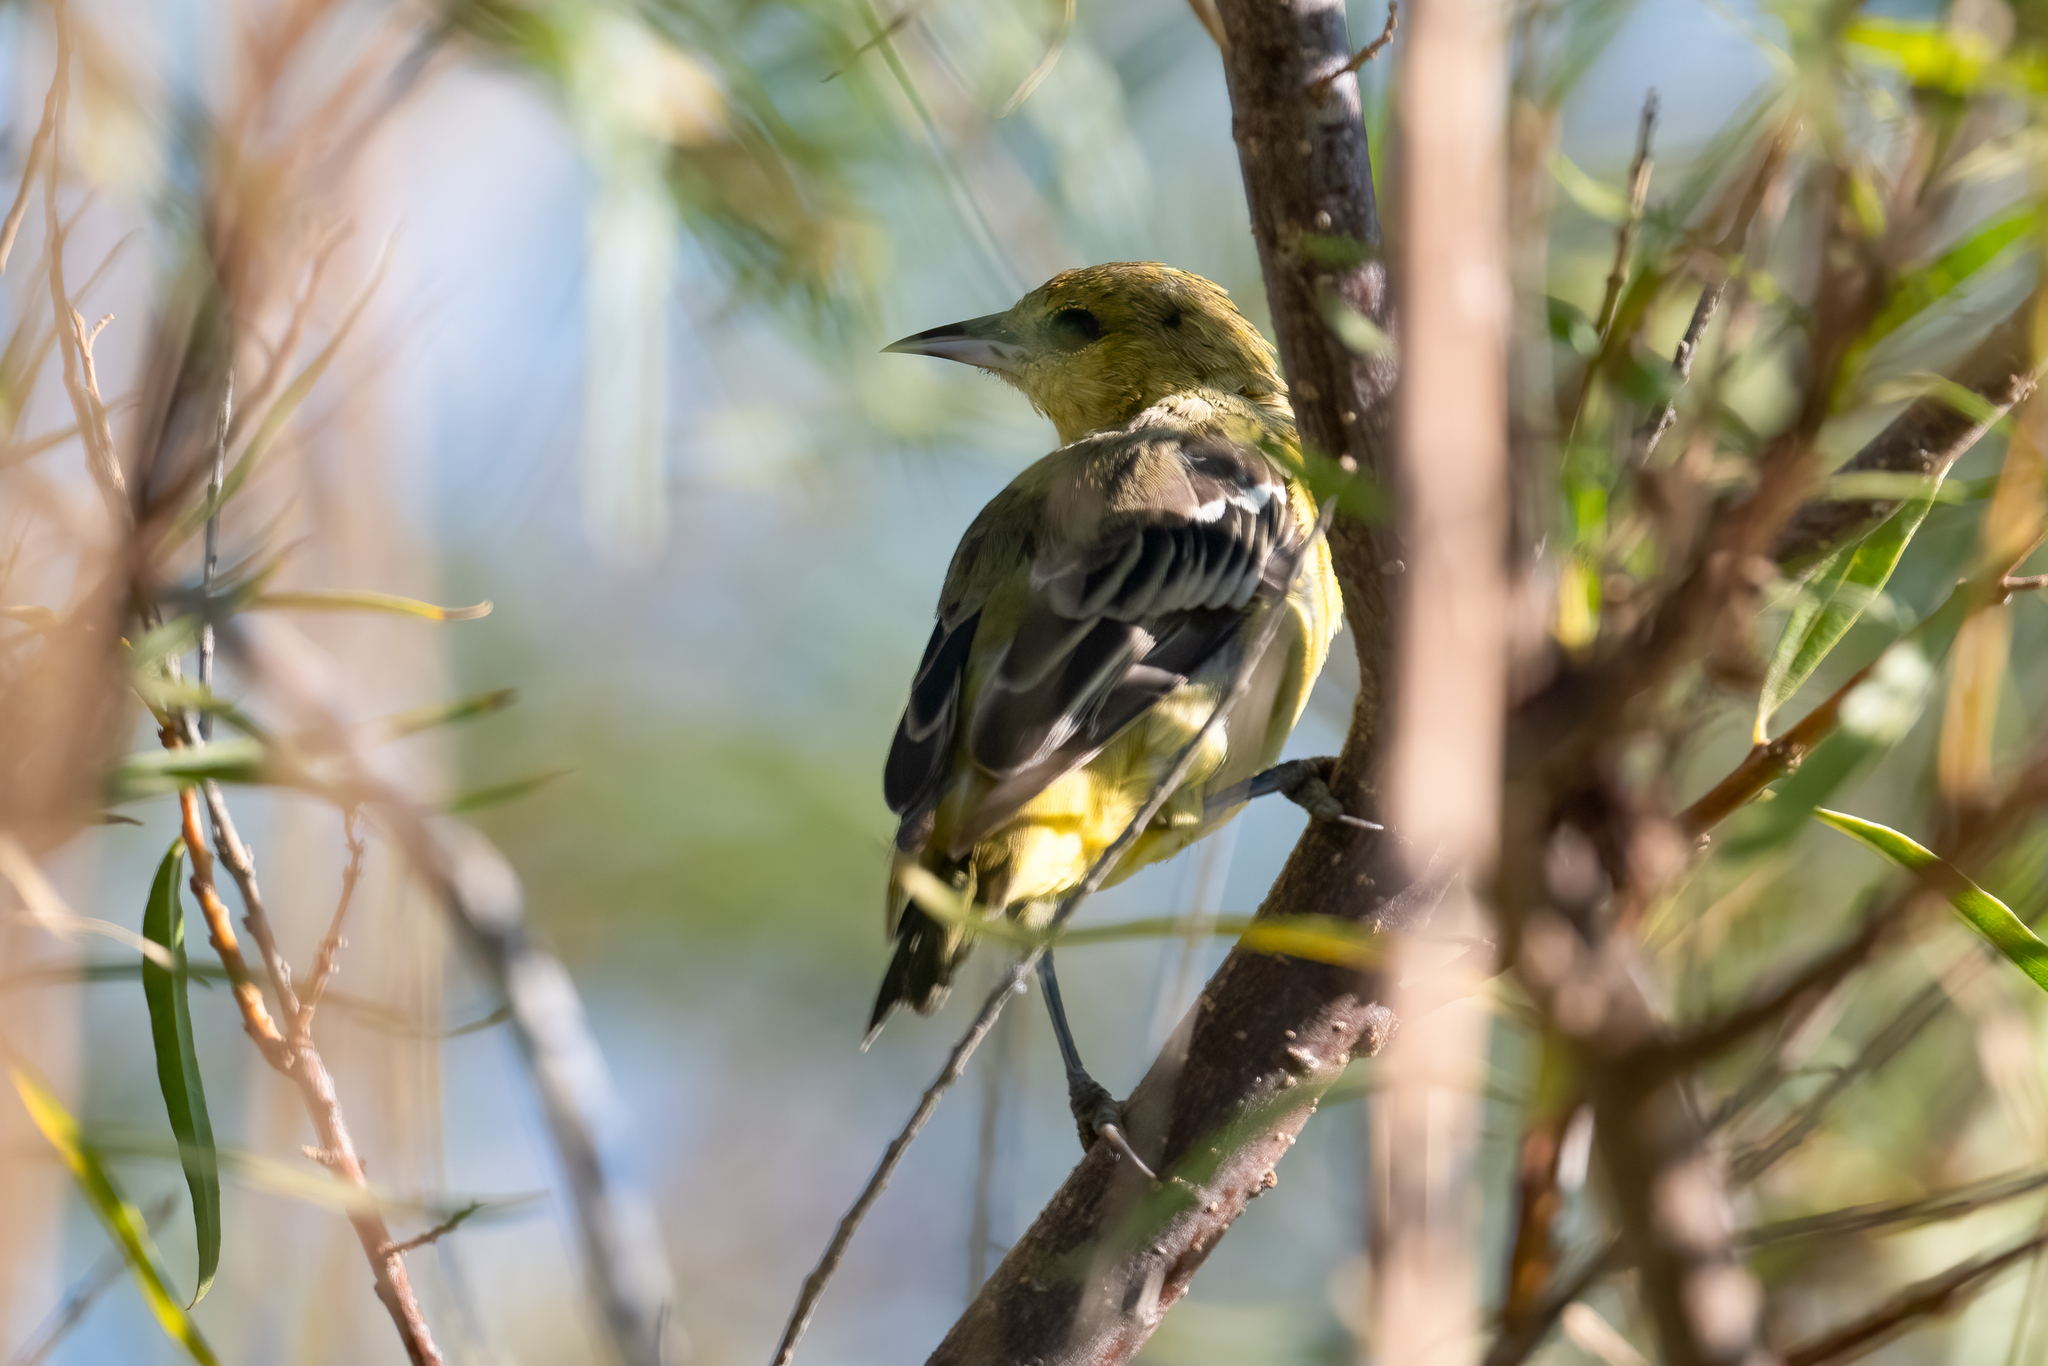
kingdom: Animalia
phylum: Chordata
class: Aves
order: Passeriformes
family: Icteridae
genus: Icterus
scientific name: Icterus spurius
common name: Orchard oriole
